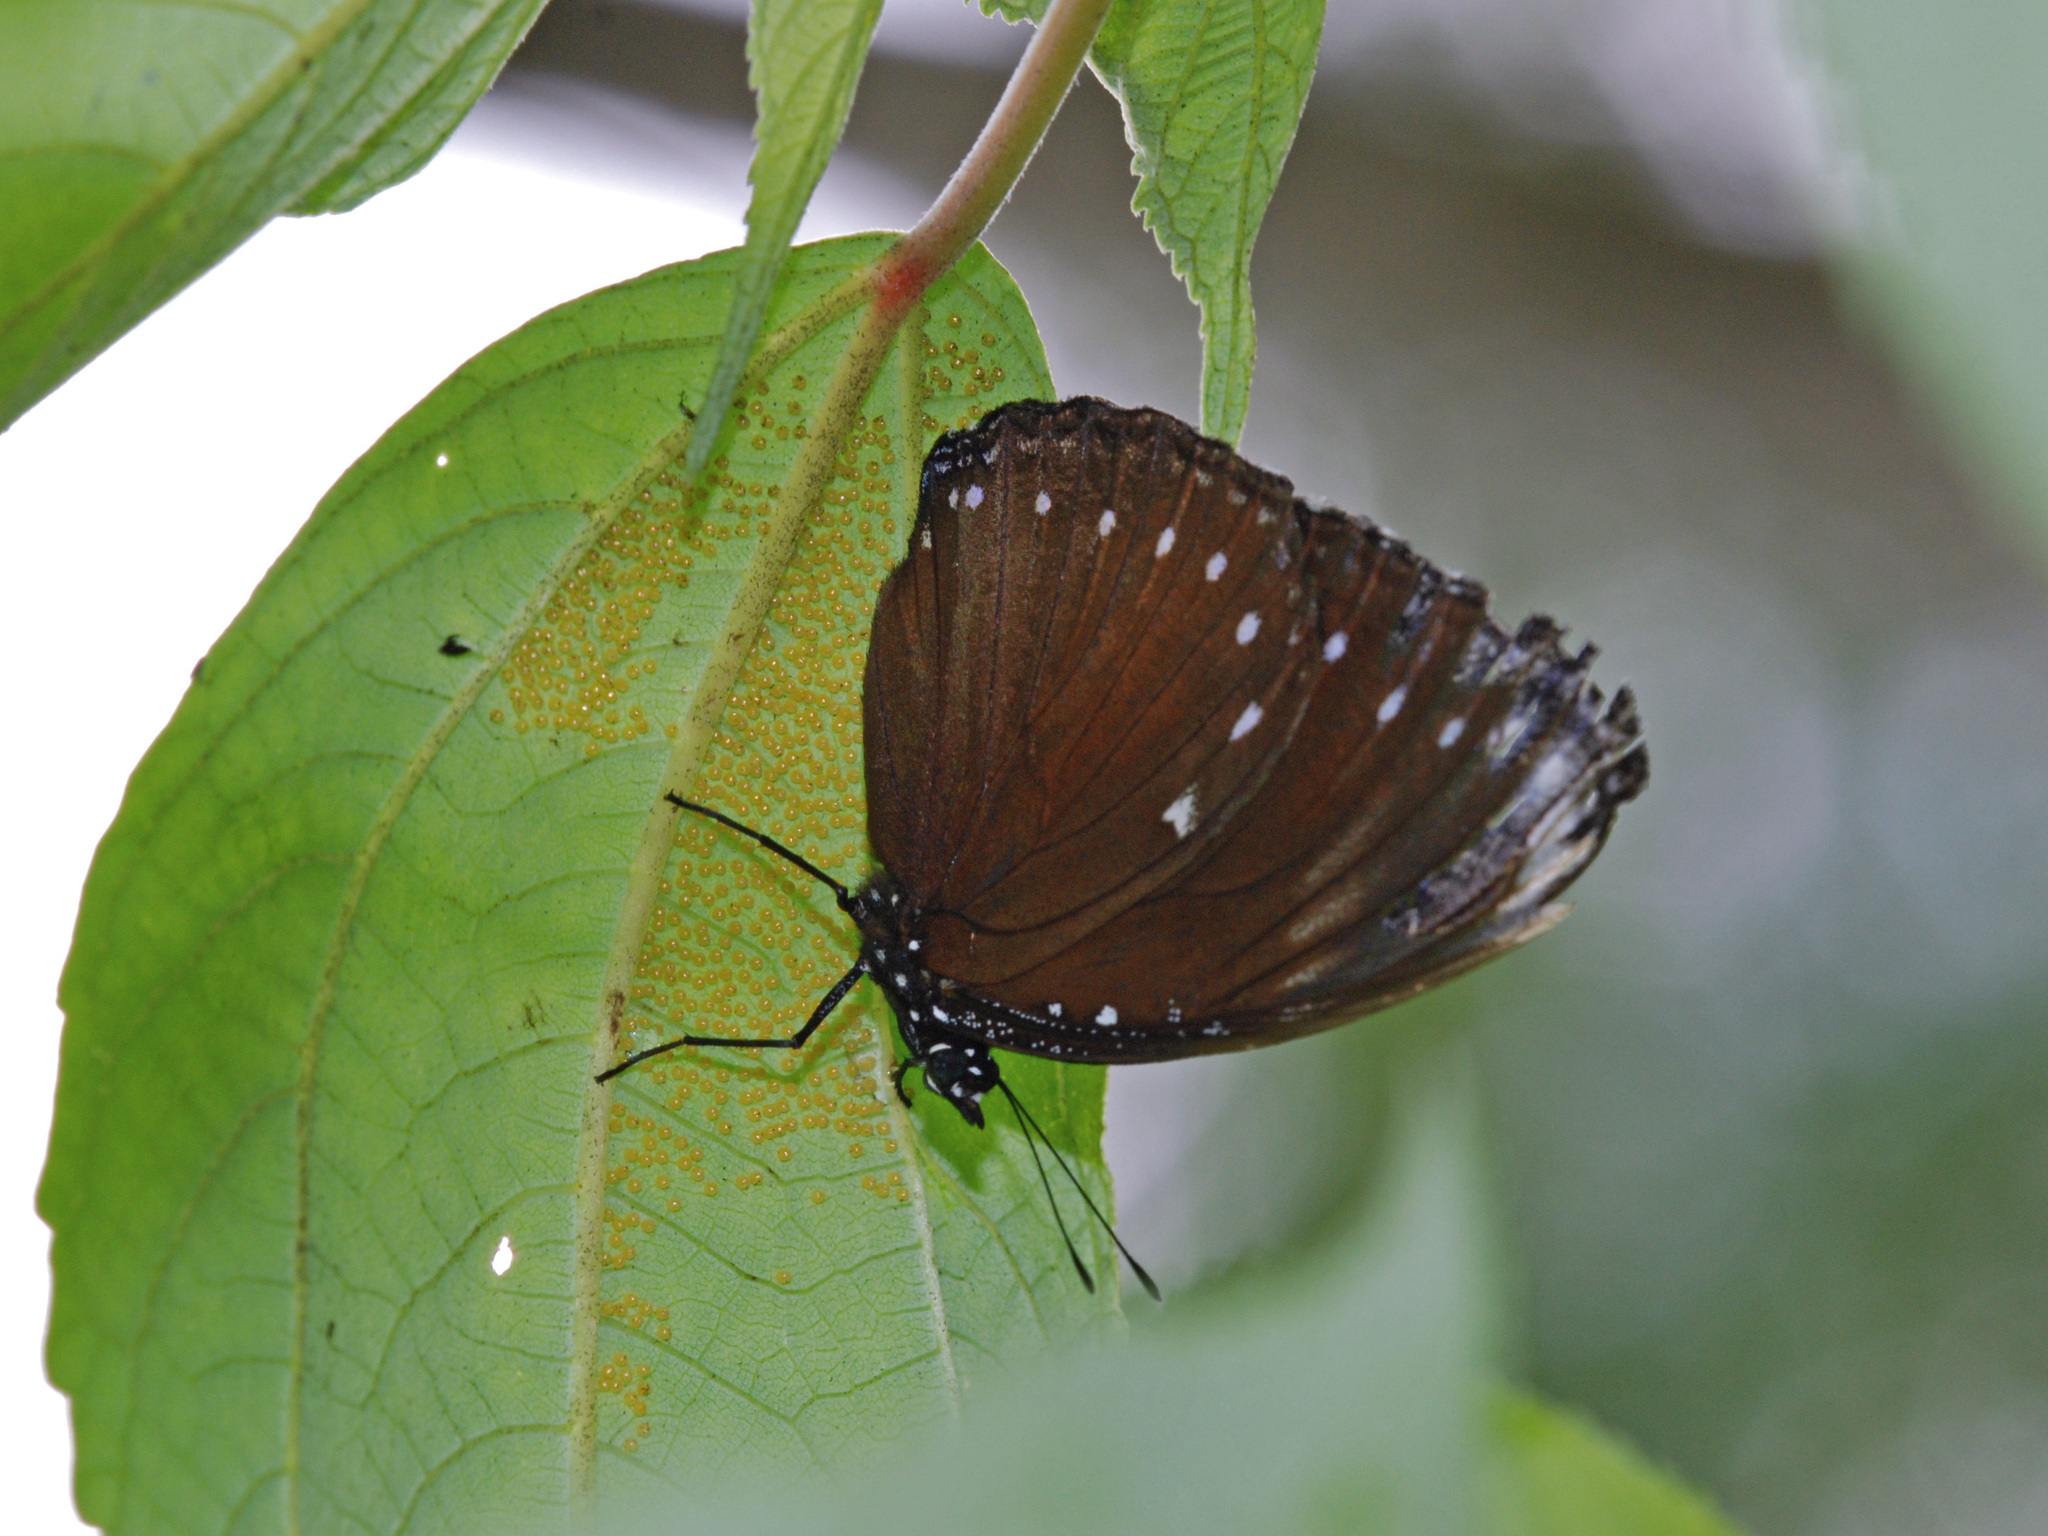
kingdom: Animalia
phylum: Arthropoda
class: Insecta
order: Lepidoptera
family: Nymphalidae
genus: Hypolimnas
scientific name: Hypolimnas anomala
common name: Malayan eggfly
